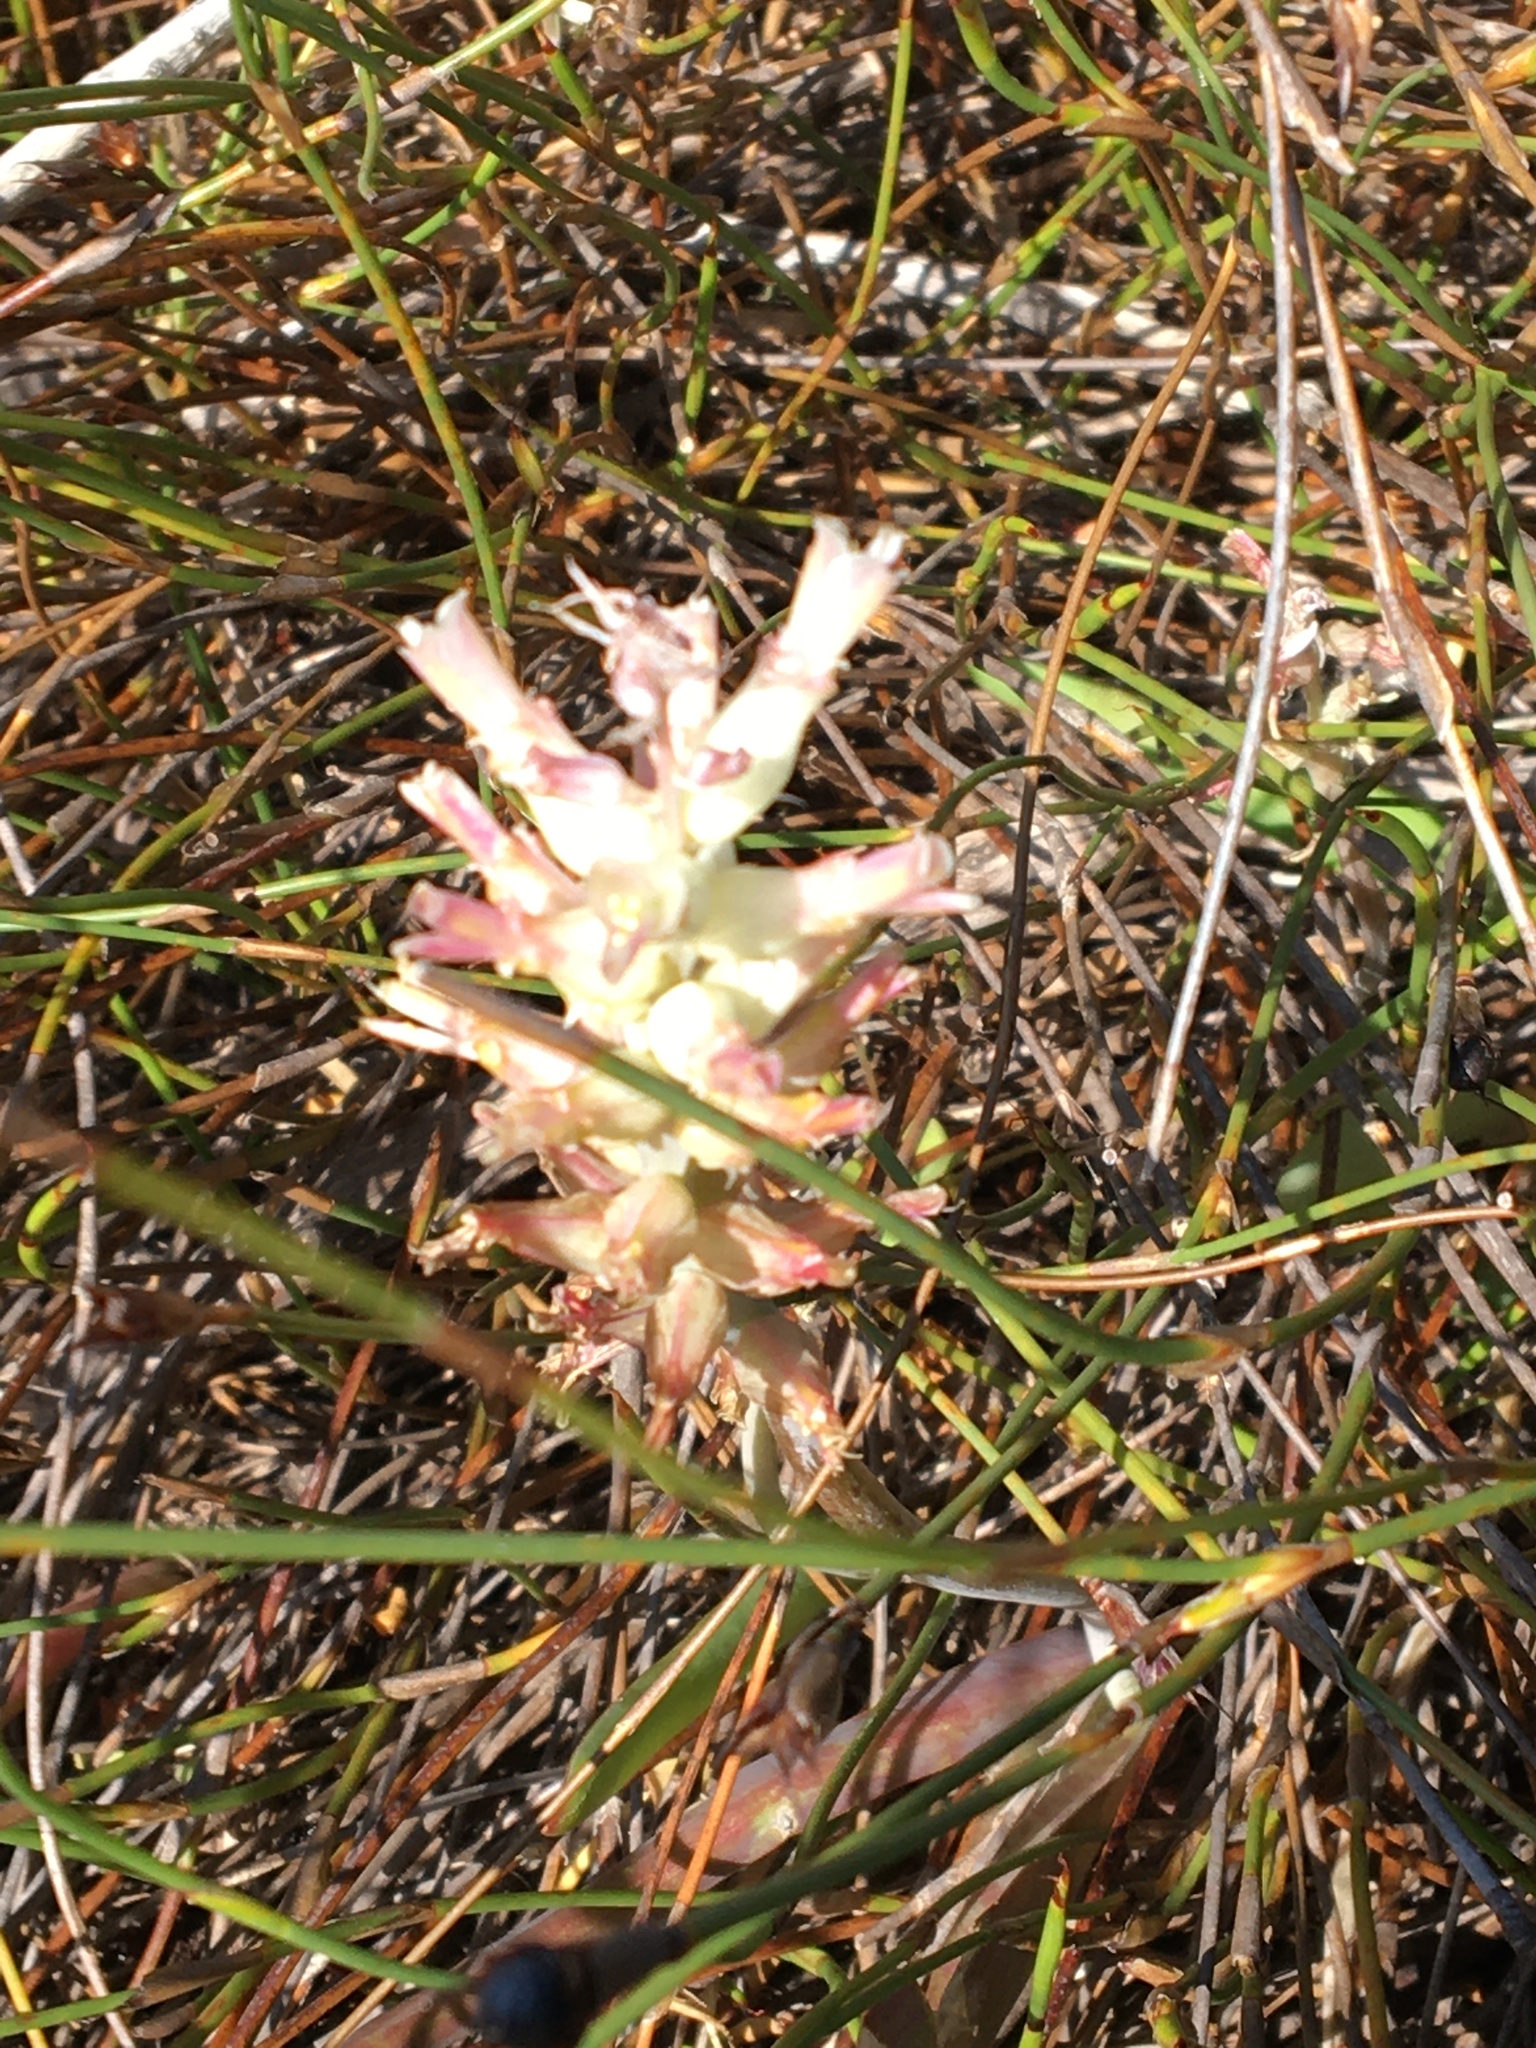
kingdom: Plantae
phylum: Tracheophyta
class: Liliopsida
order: Asparagales
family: Asparagaceae
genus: Lachenalia
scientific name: Lachenalia orchioides
